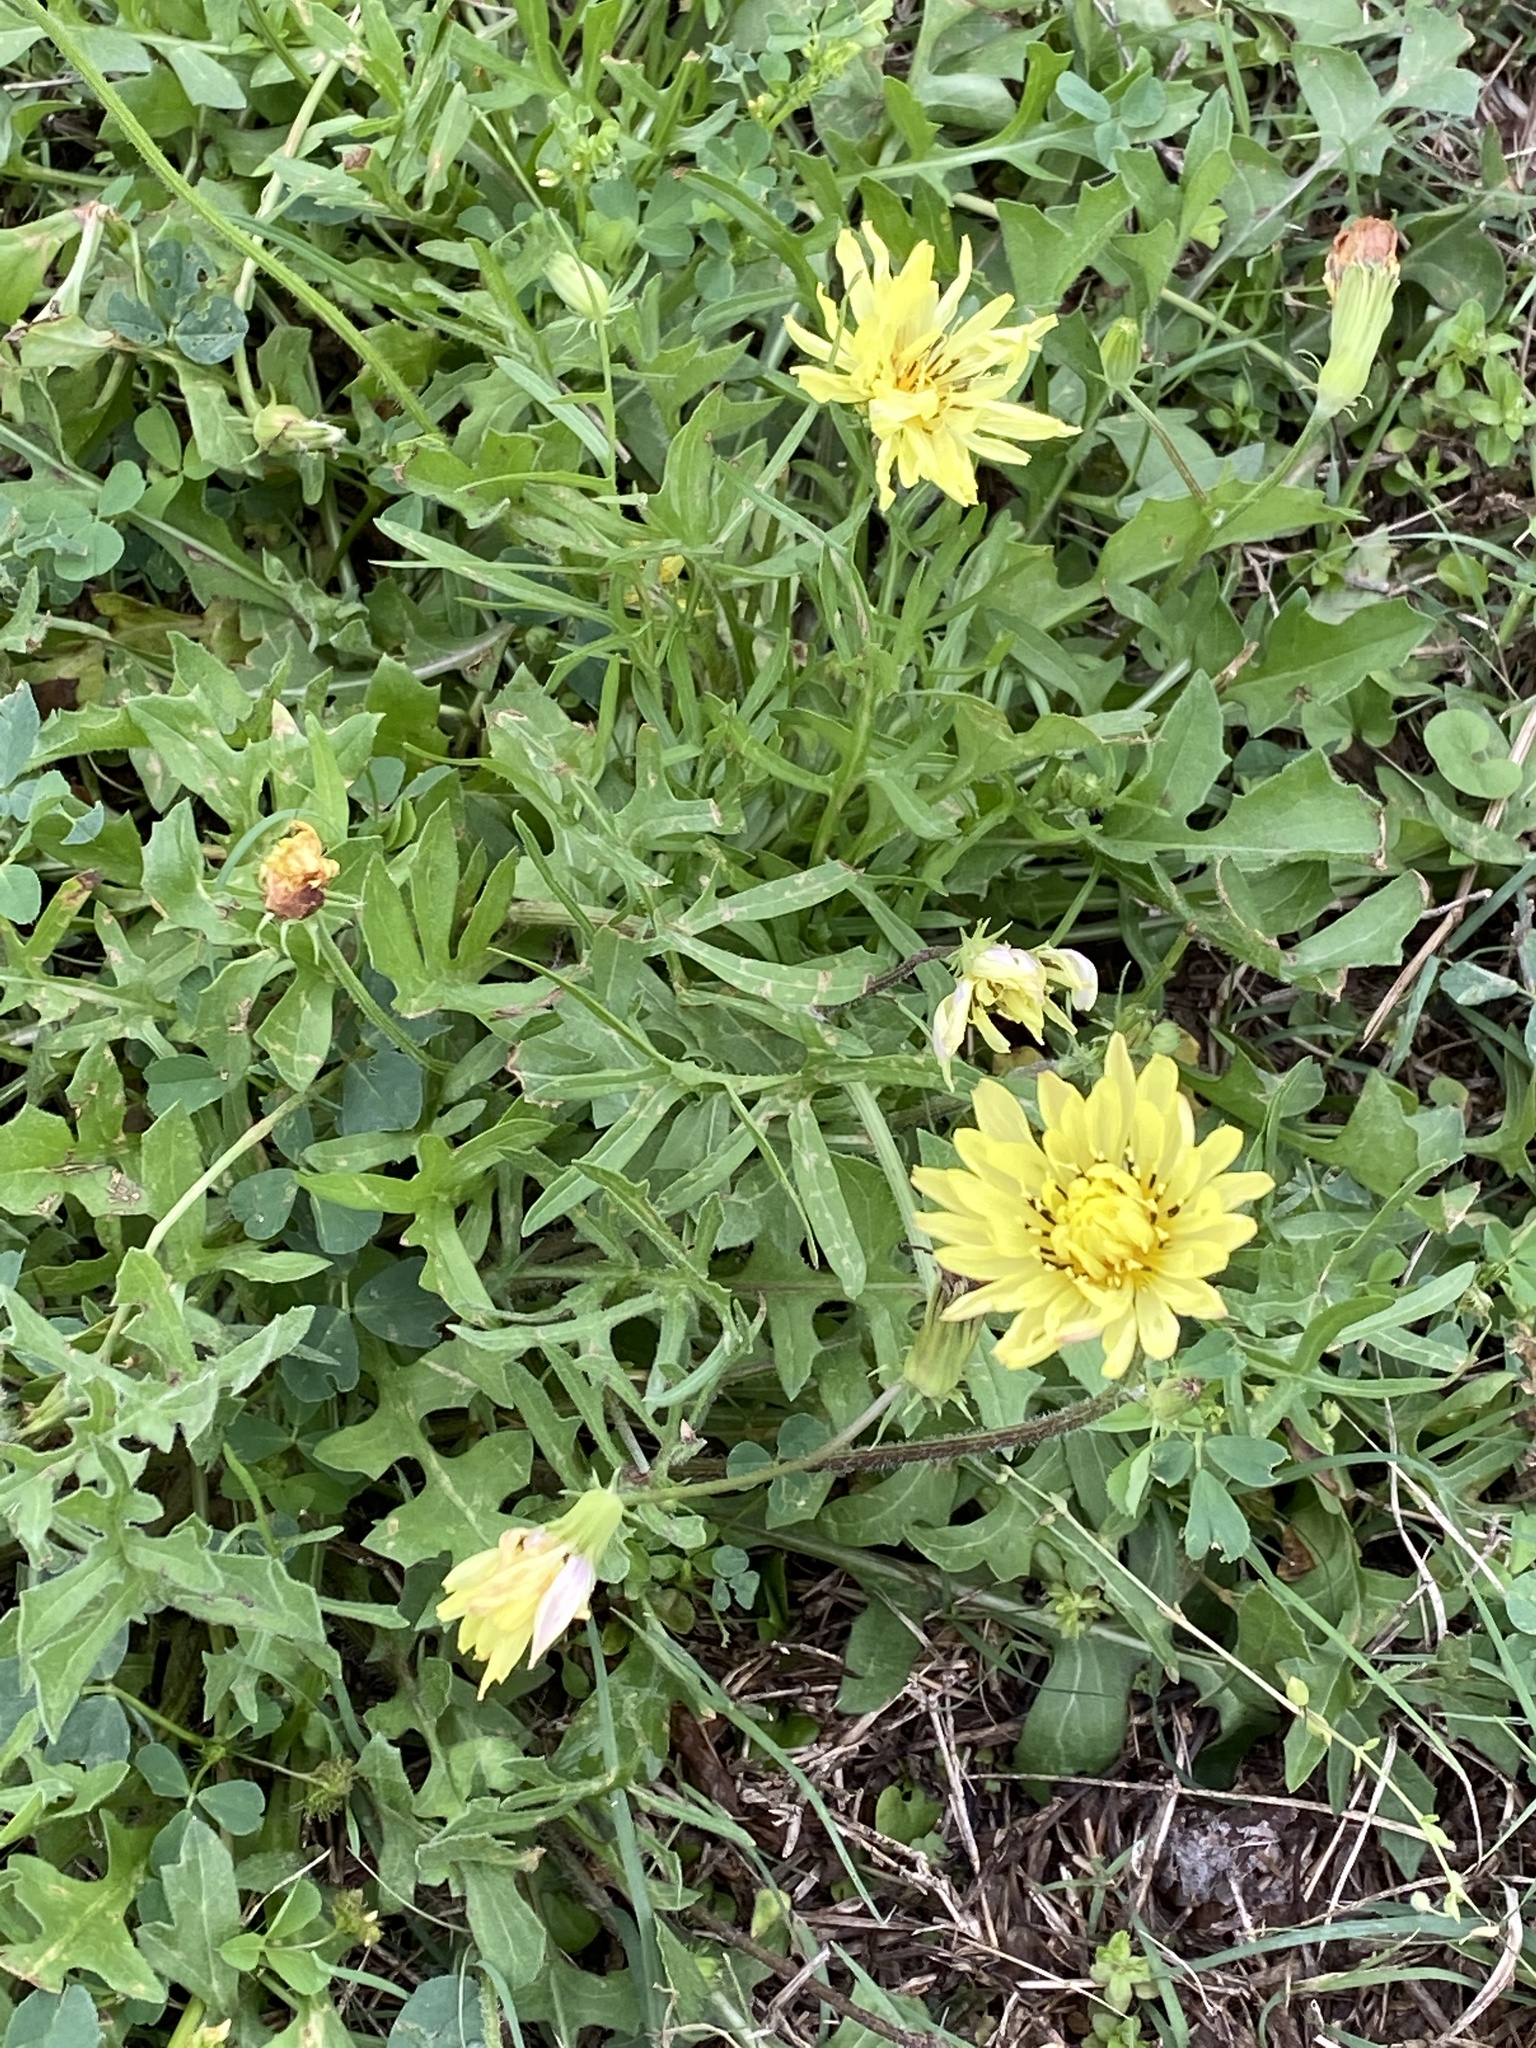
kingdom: Plantae
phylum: Tracheophyta
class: Magnoliopsida
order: Asterales
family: Asteraceae
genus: Pyrrhopappus
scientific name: Pyrrhopappus pauciflorus
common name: Texas false dandelion
